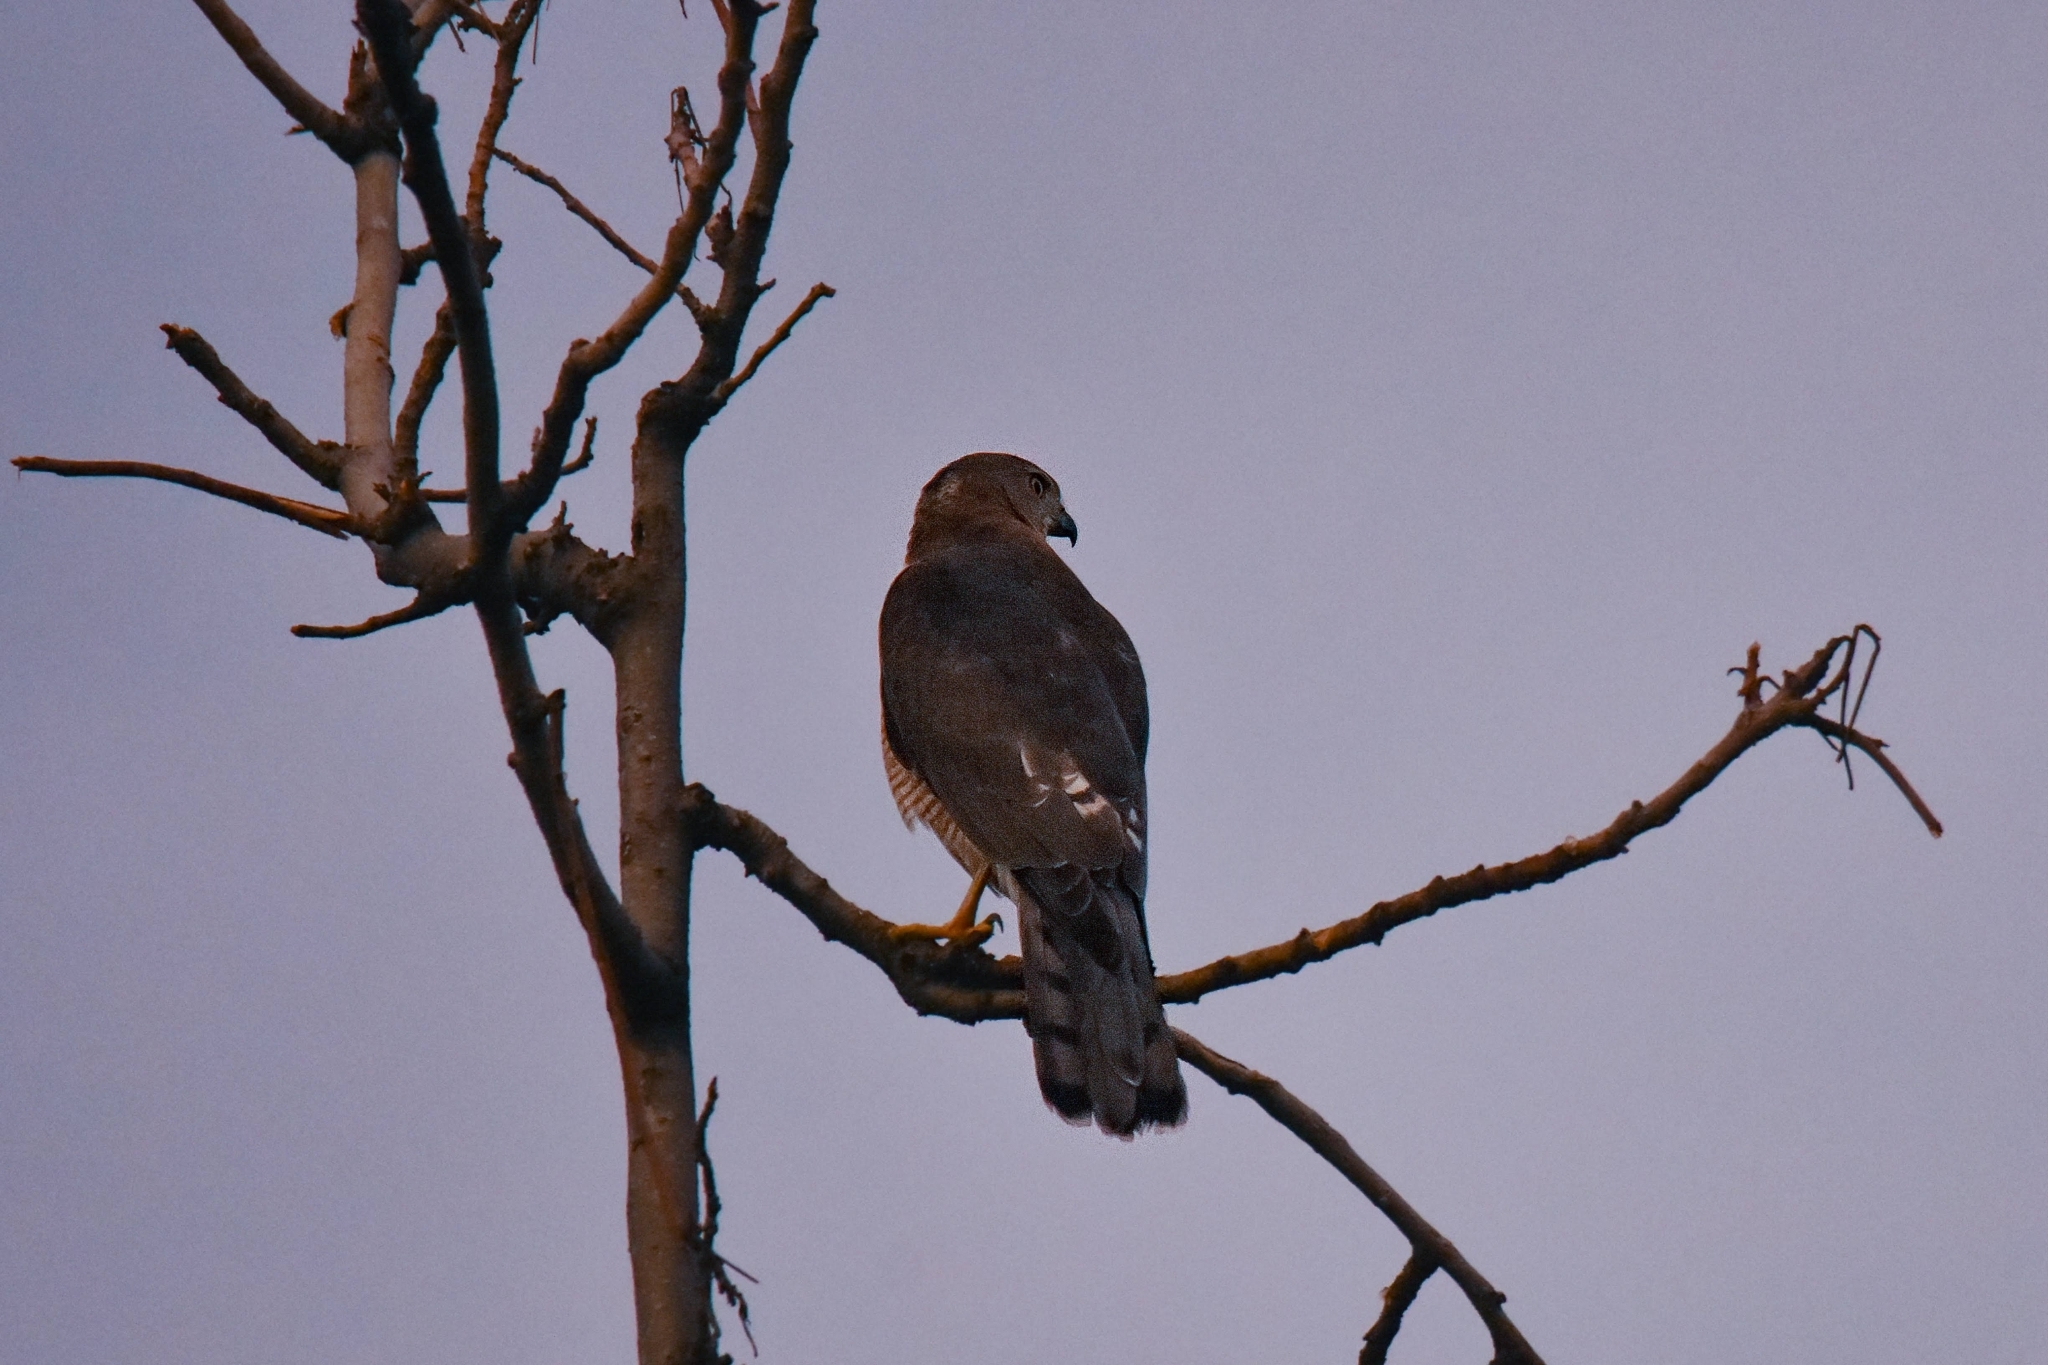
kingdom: Animalia
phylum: Chordata
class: Aves
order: Accipitriformes
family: Accipitridae
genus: Accipiter
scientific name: Accipiter badius
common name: Shikra
